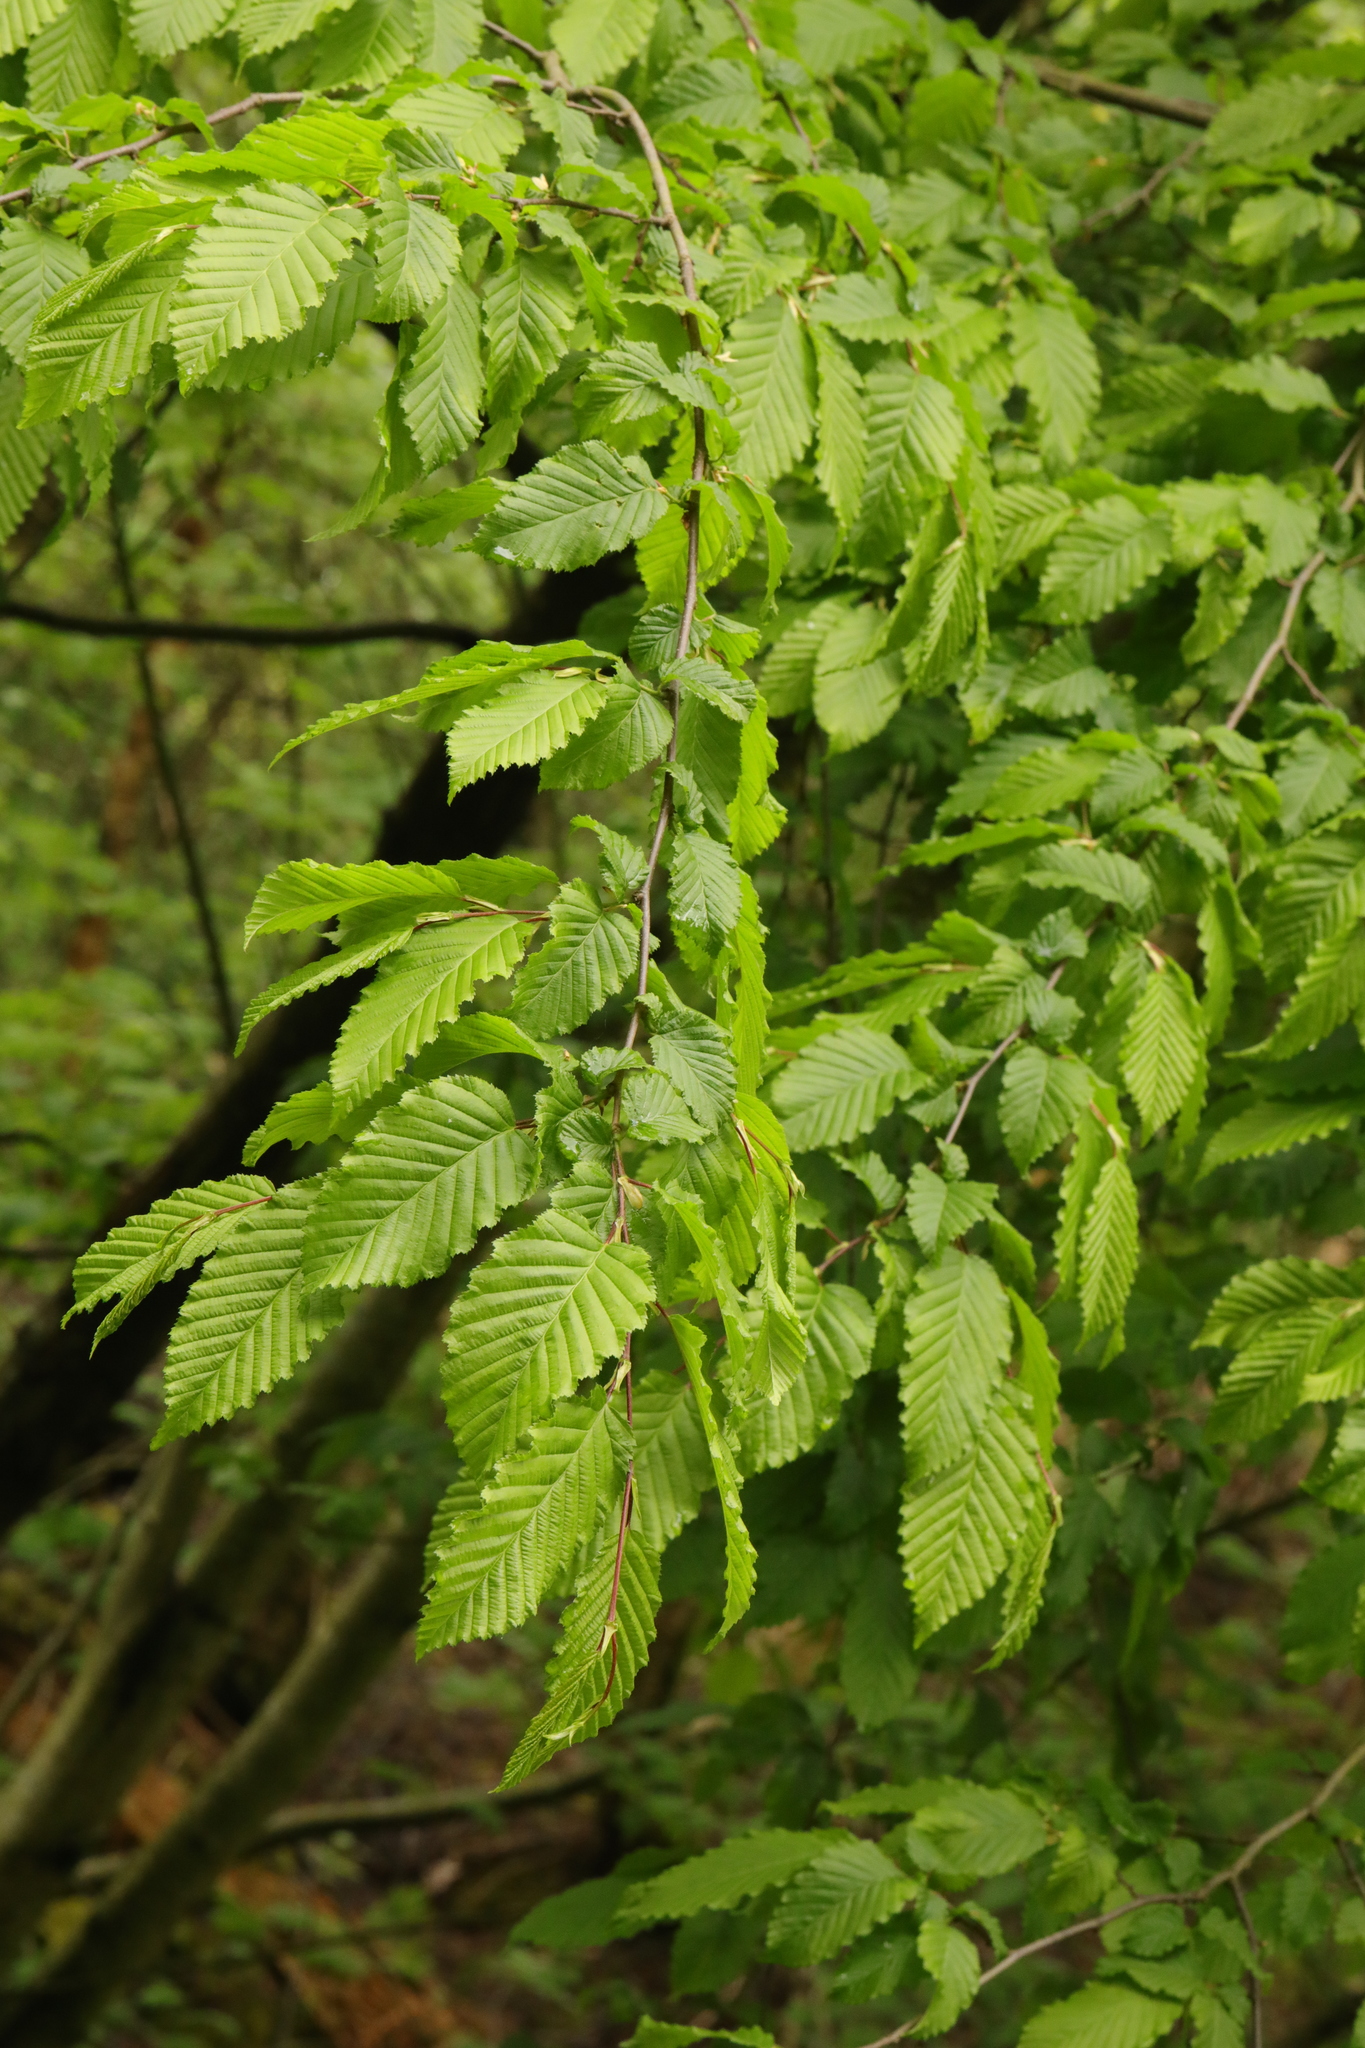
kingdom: Plantae
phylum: Tracheophyta
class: Magnoliopsida
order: Fagales
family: Betulaceae
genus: Carpinus
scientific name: Carpinus betulus
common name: Hornbeam
